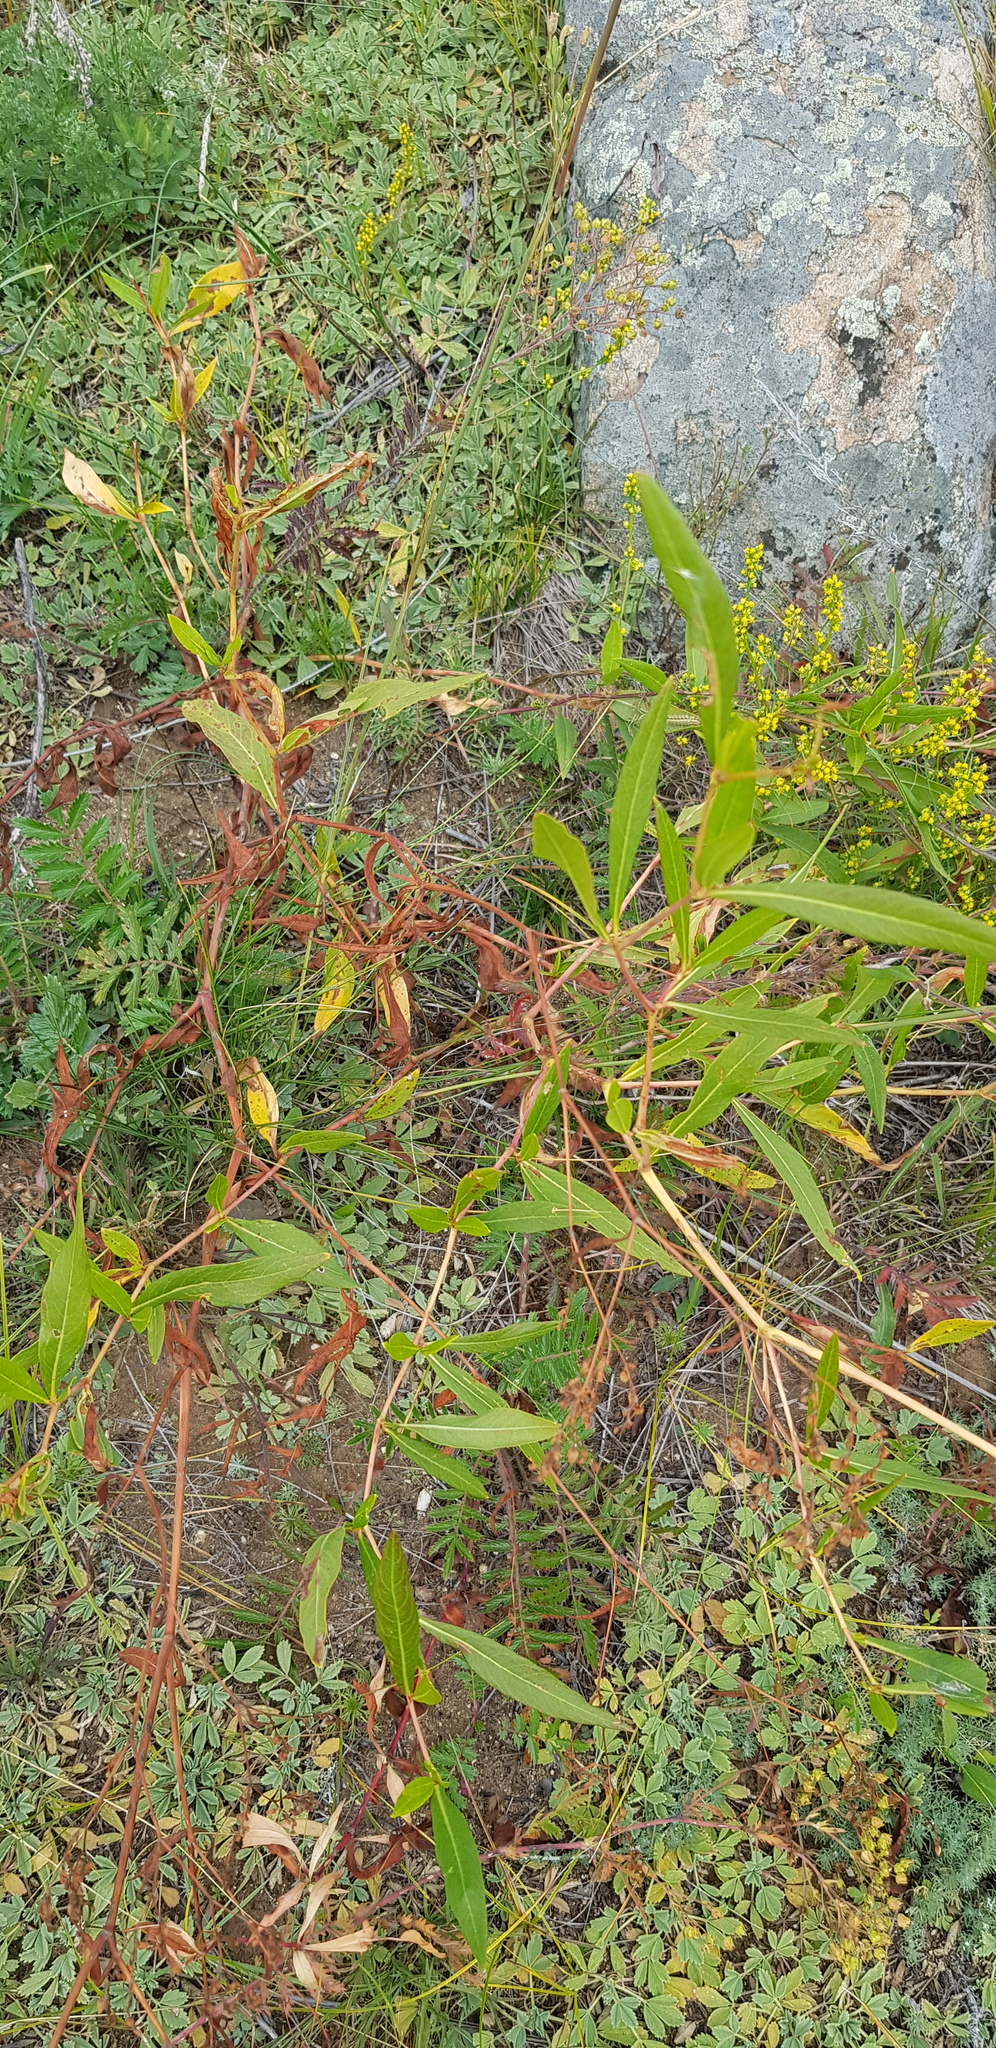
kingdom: Plantae
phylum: Tracheophyta
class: Magnoliopsida
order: Caryophyllales
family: Polygonaceae
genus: Koenigia
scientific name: Koenigia divaricata
